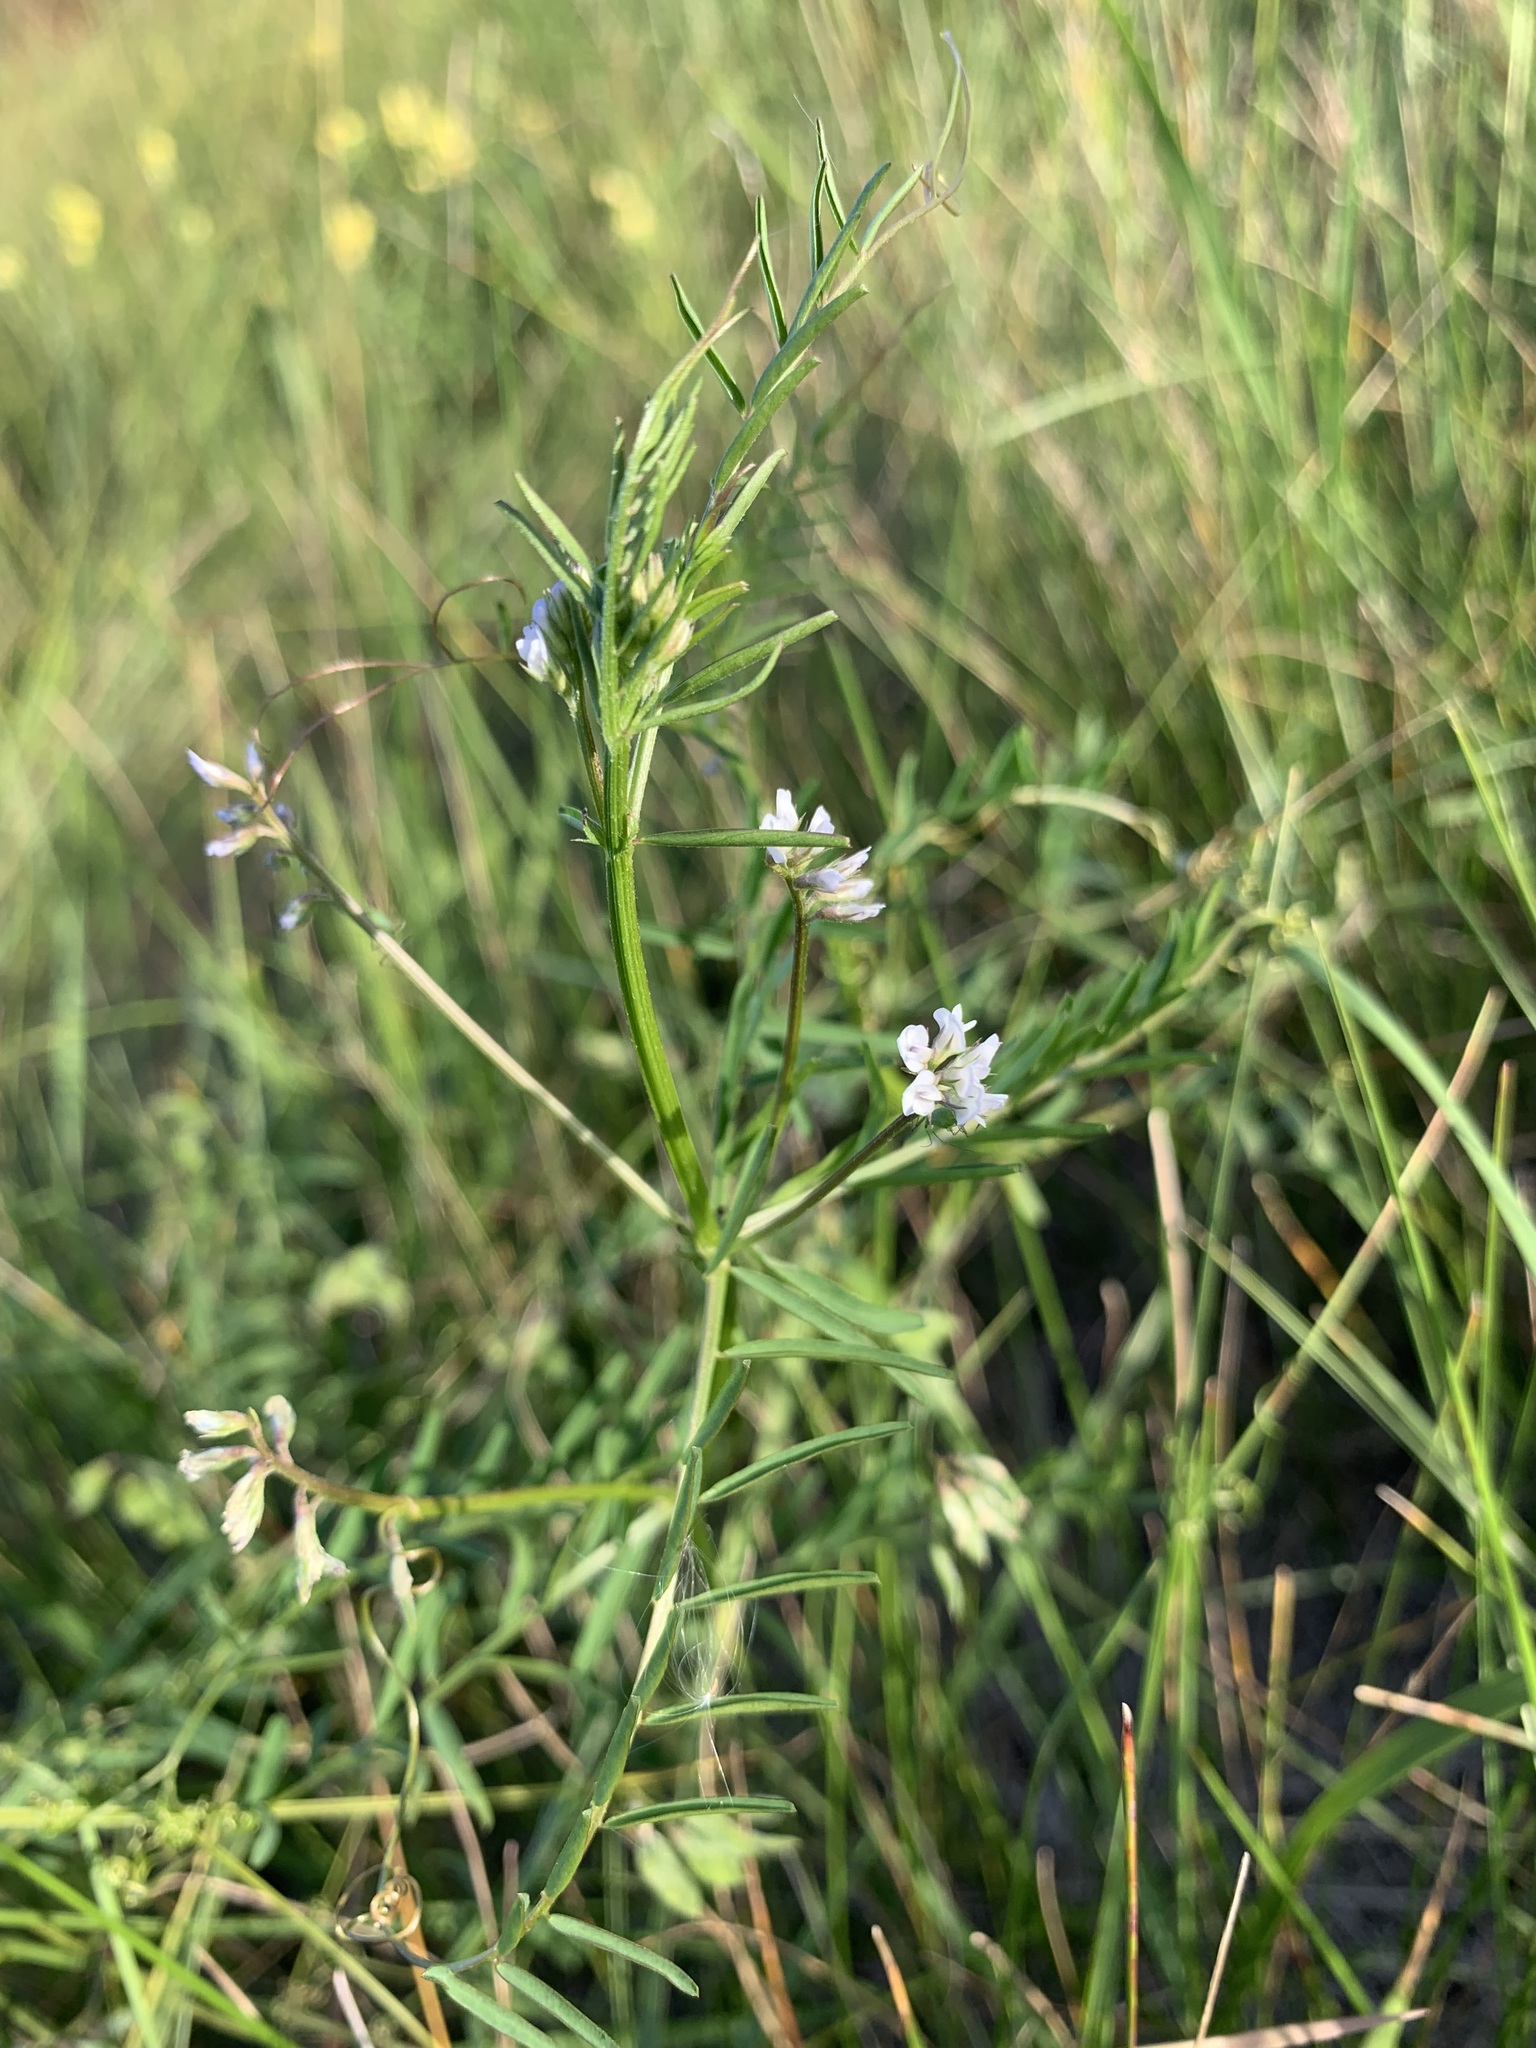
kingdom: Plantae
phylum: Tracheophyta
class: Magnoliopsida
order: Fabales
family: Fabaceae
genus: Vicia
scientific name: Vicia hirsuta
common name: Tiny vetch
